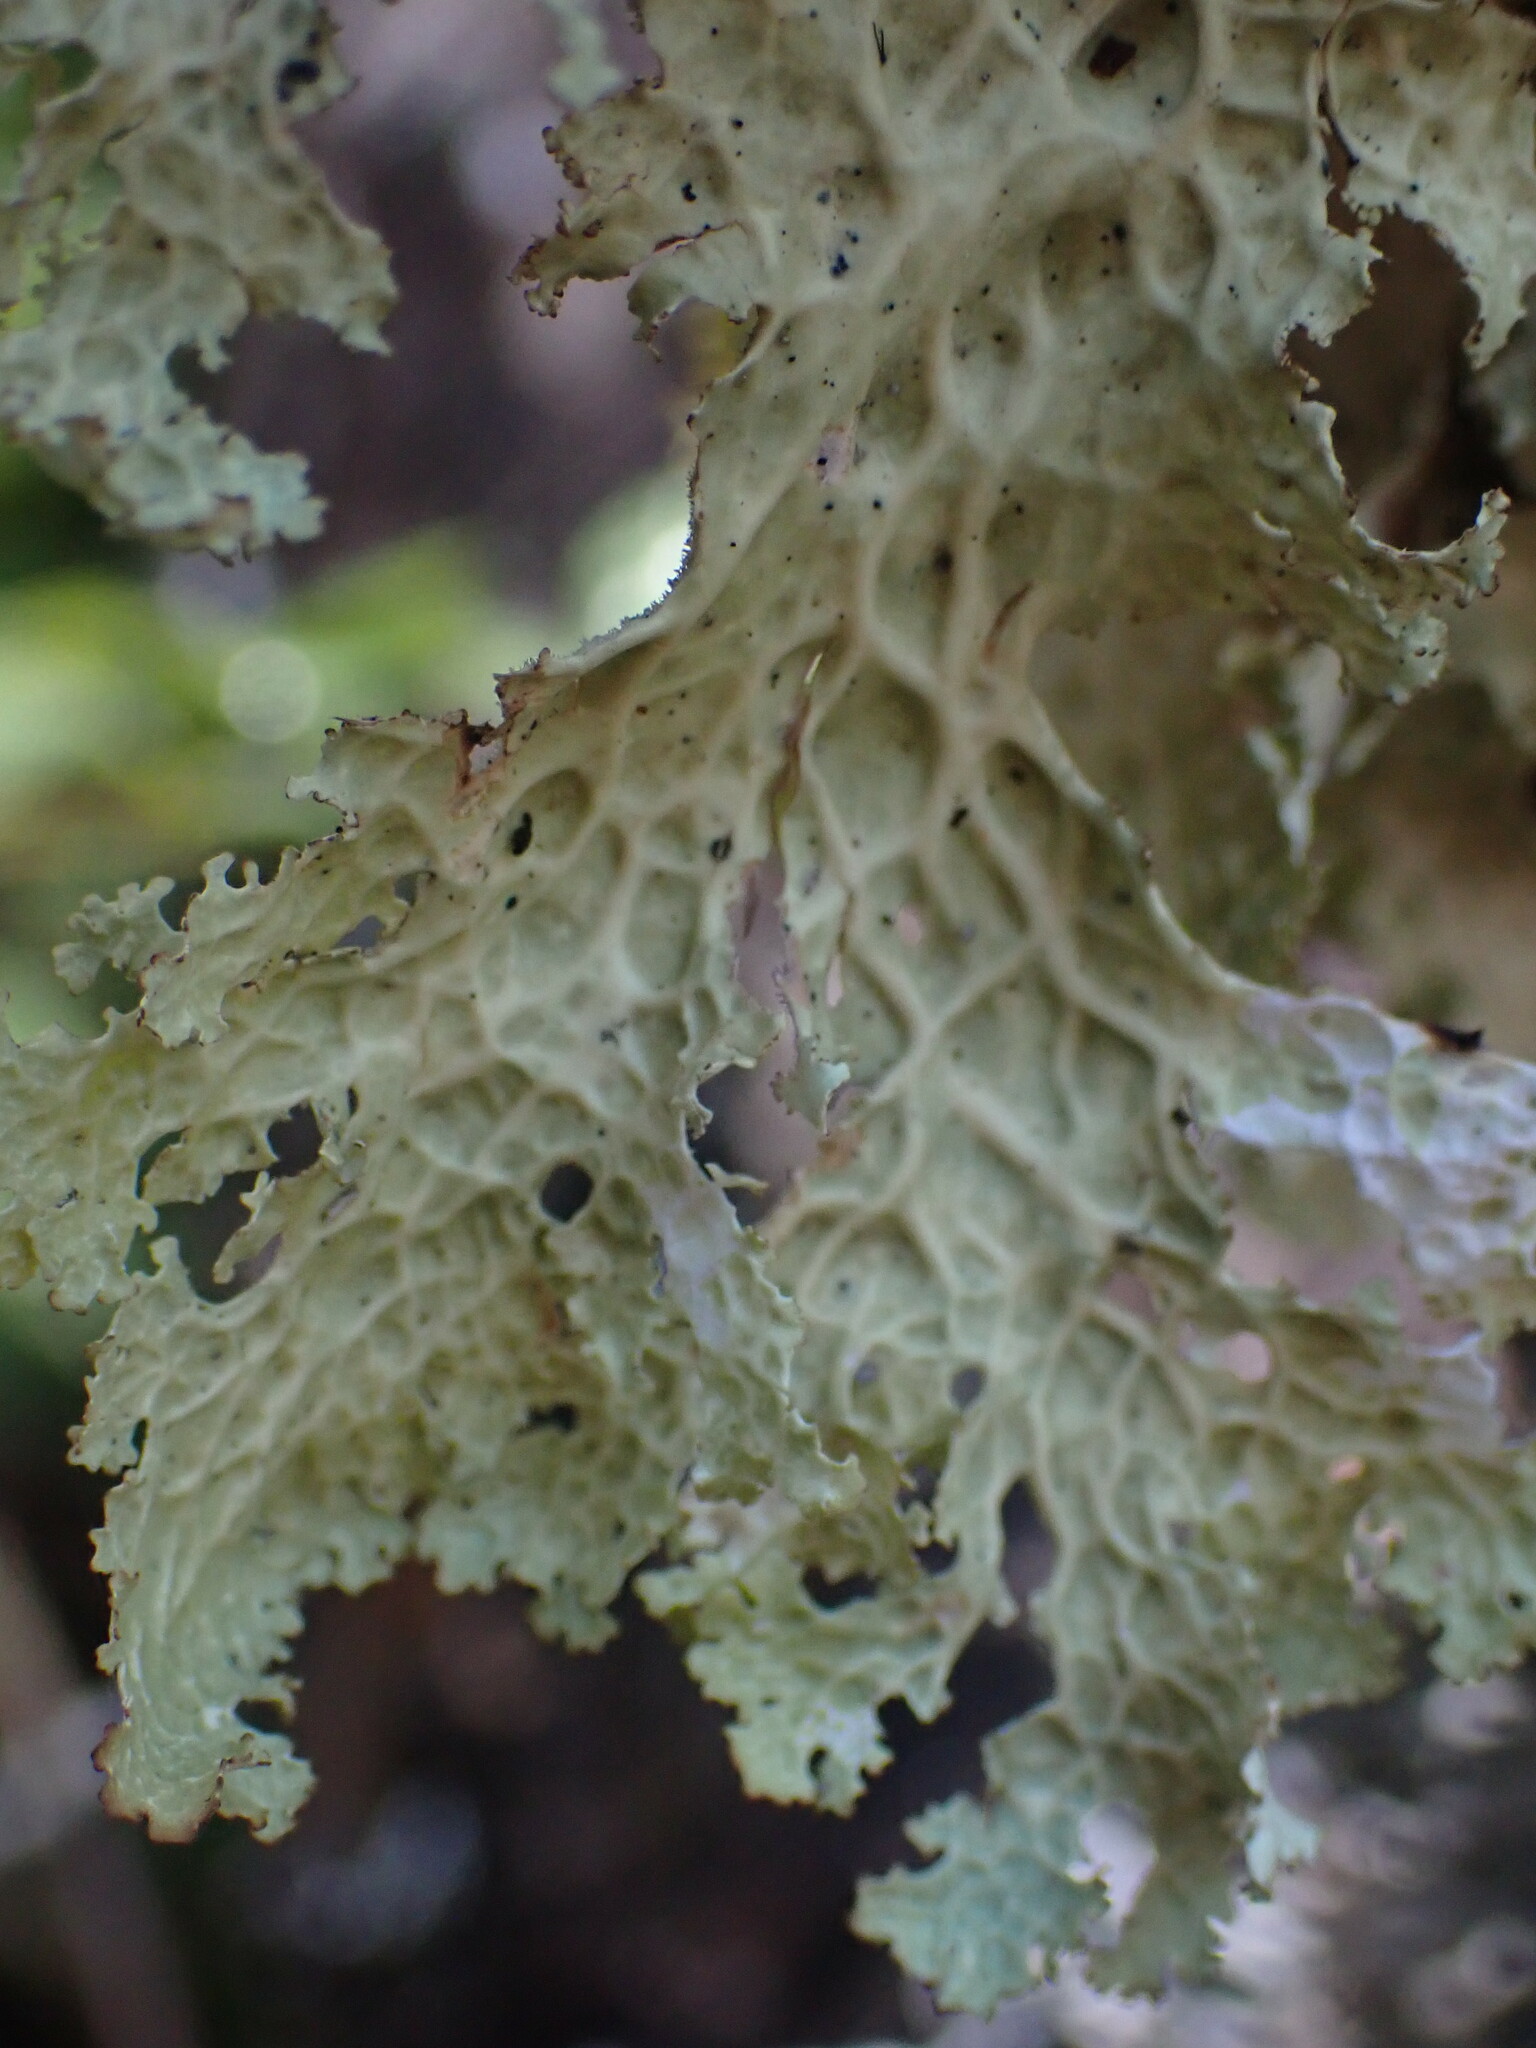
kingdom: Fungi
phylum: Ascomycota
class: Lecanoromycetes
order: Peltigerales
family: Lobariaceae
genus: Lobaria
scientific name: Lobaria oregana
